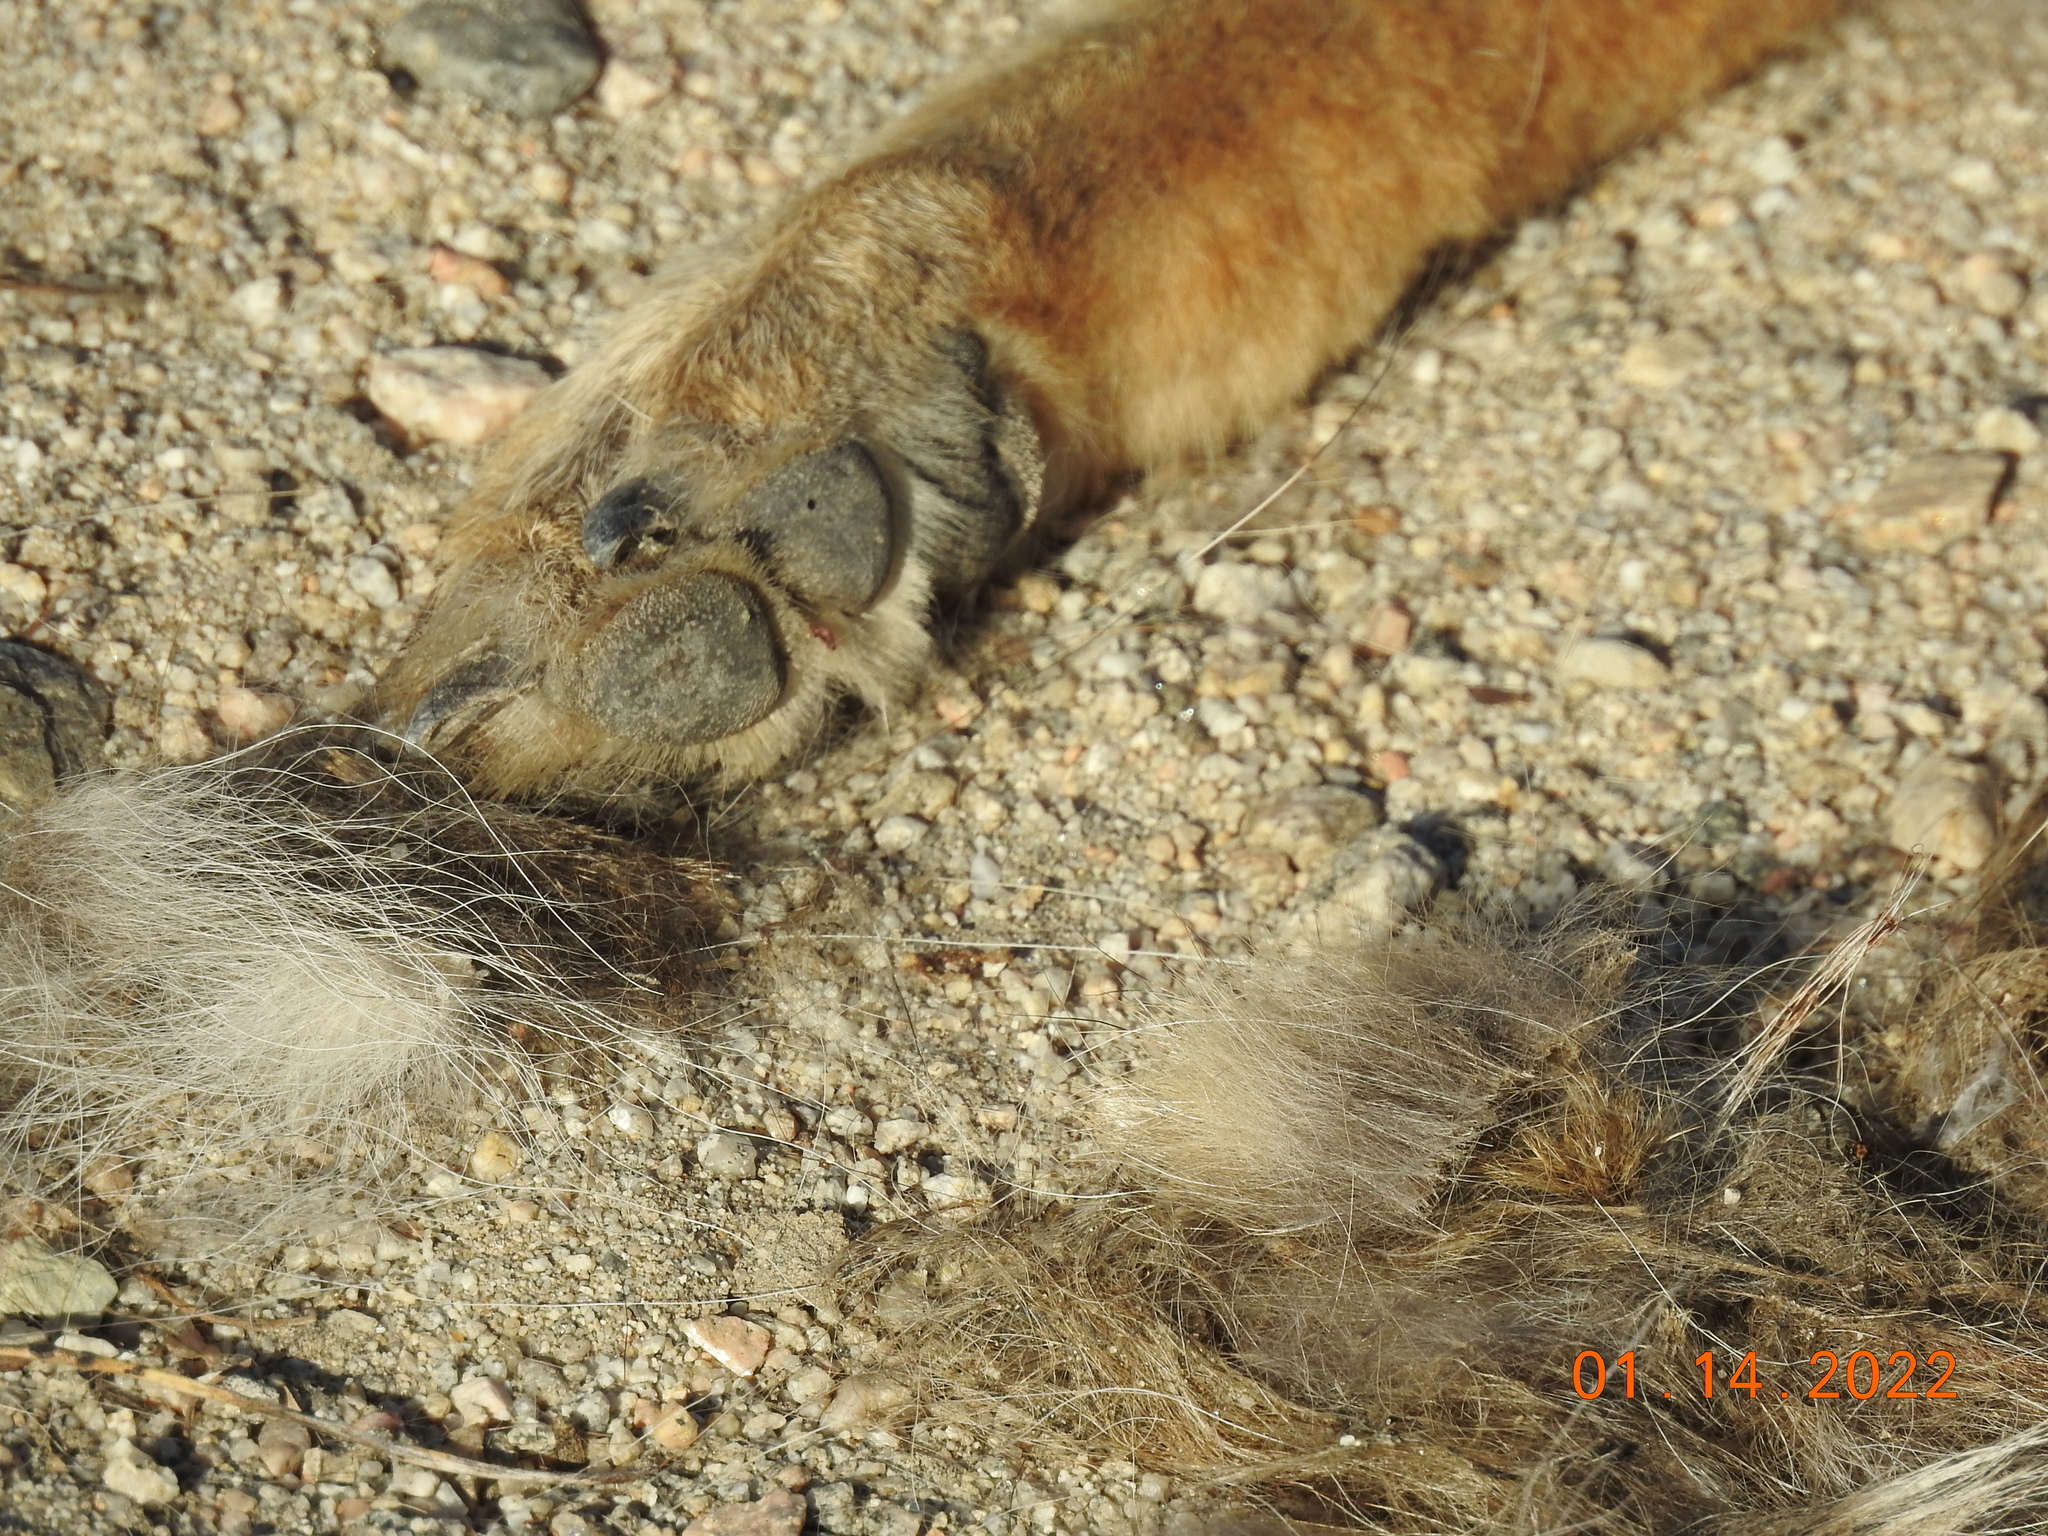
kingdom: Animalia
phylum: Chordata
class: Mammalia
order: Carnivora
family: Canidae
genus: Canis
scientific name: Canis latrans
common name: Coyote
